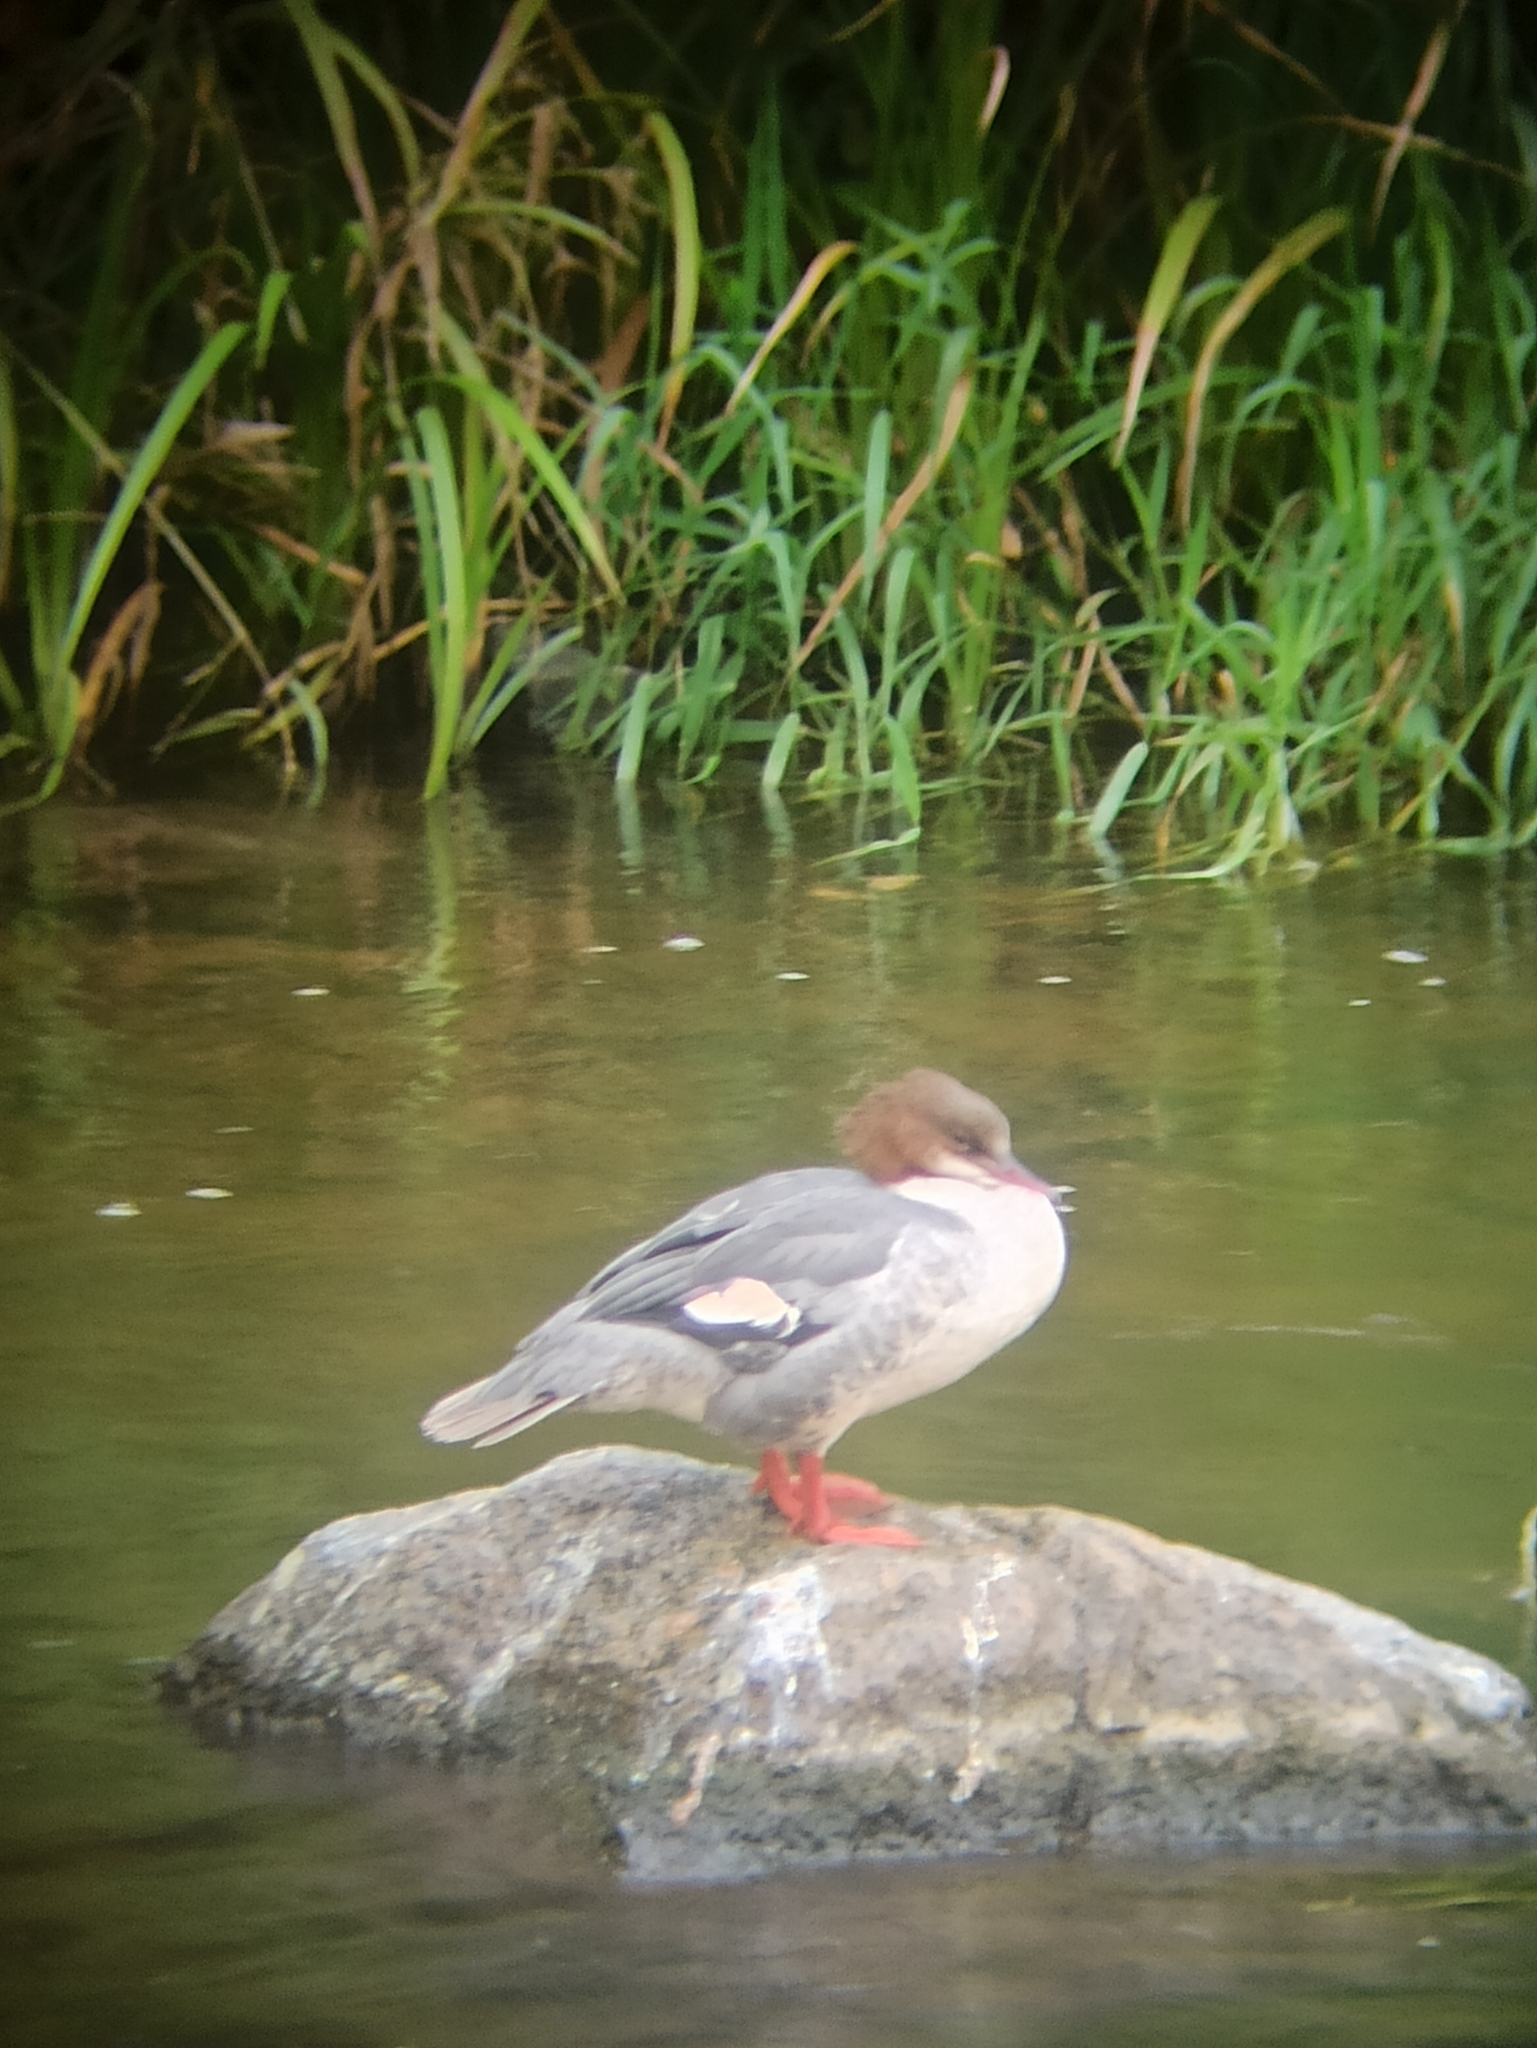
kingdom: Animalia
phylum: Chordata
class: Aves
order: Anseriformes
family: Anatidae
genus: Mergus
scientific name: Mergus merganser
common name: Common merganser
